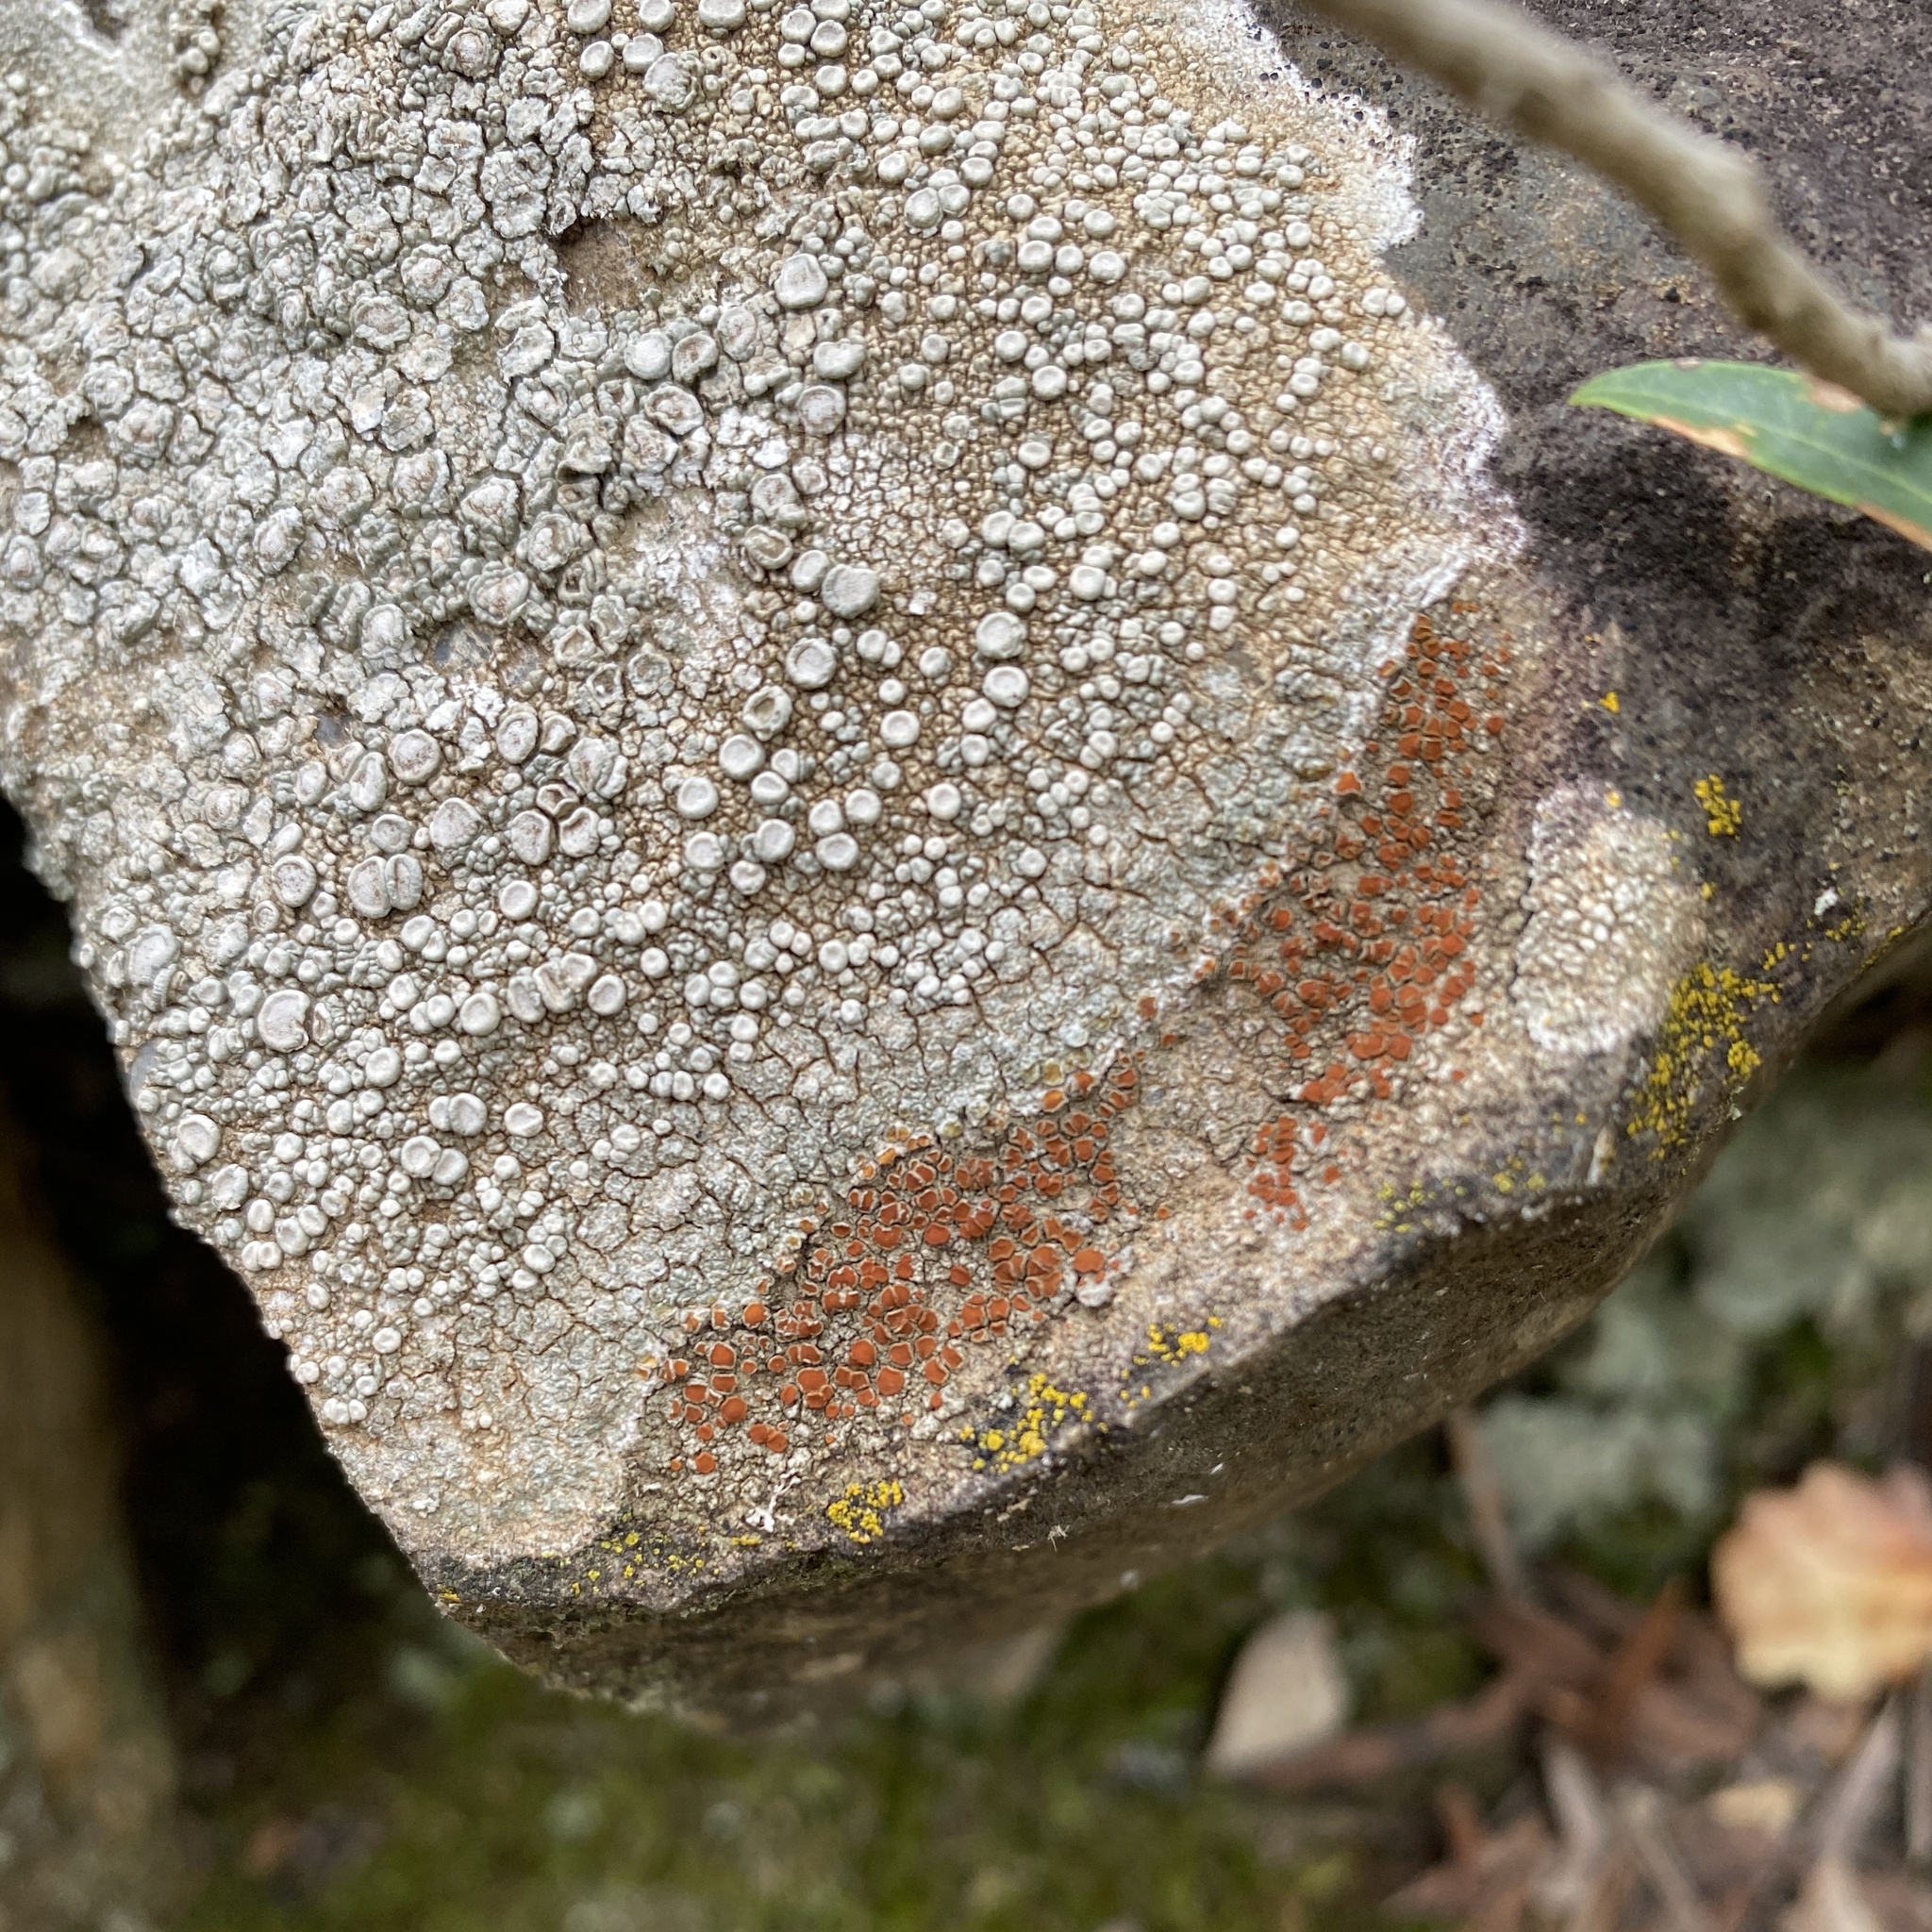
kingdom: Fungi
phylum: Ascomycota
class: Lecanoromycetes
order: Pertusariales
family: Ochrolechiaceae
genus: Ochrolechia
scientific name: Ochrolechia parella
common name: Crab's eye lichen
